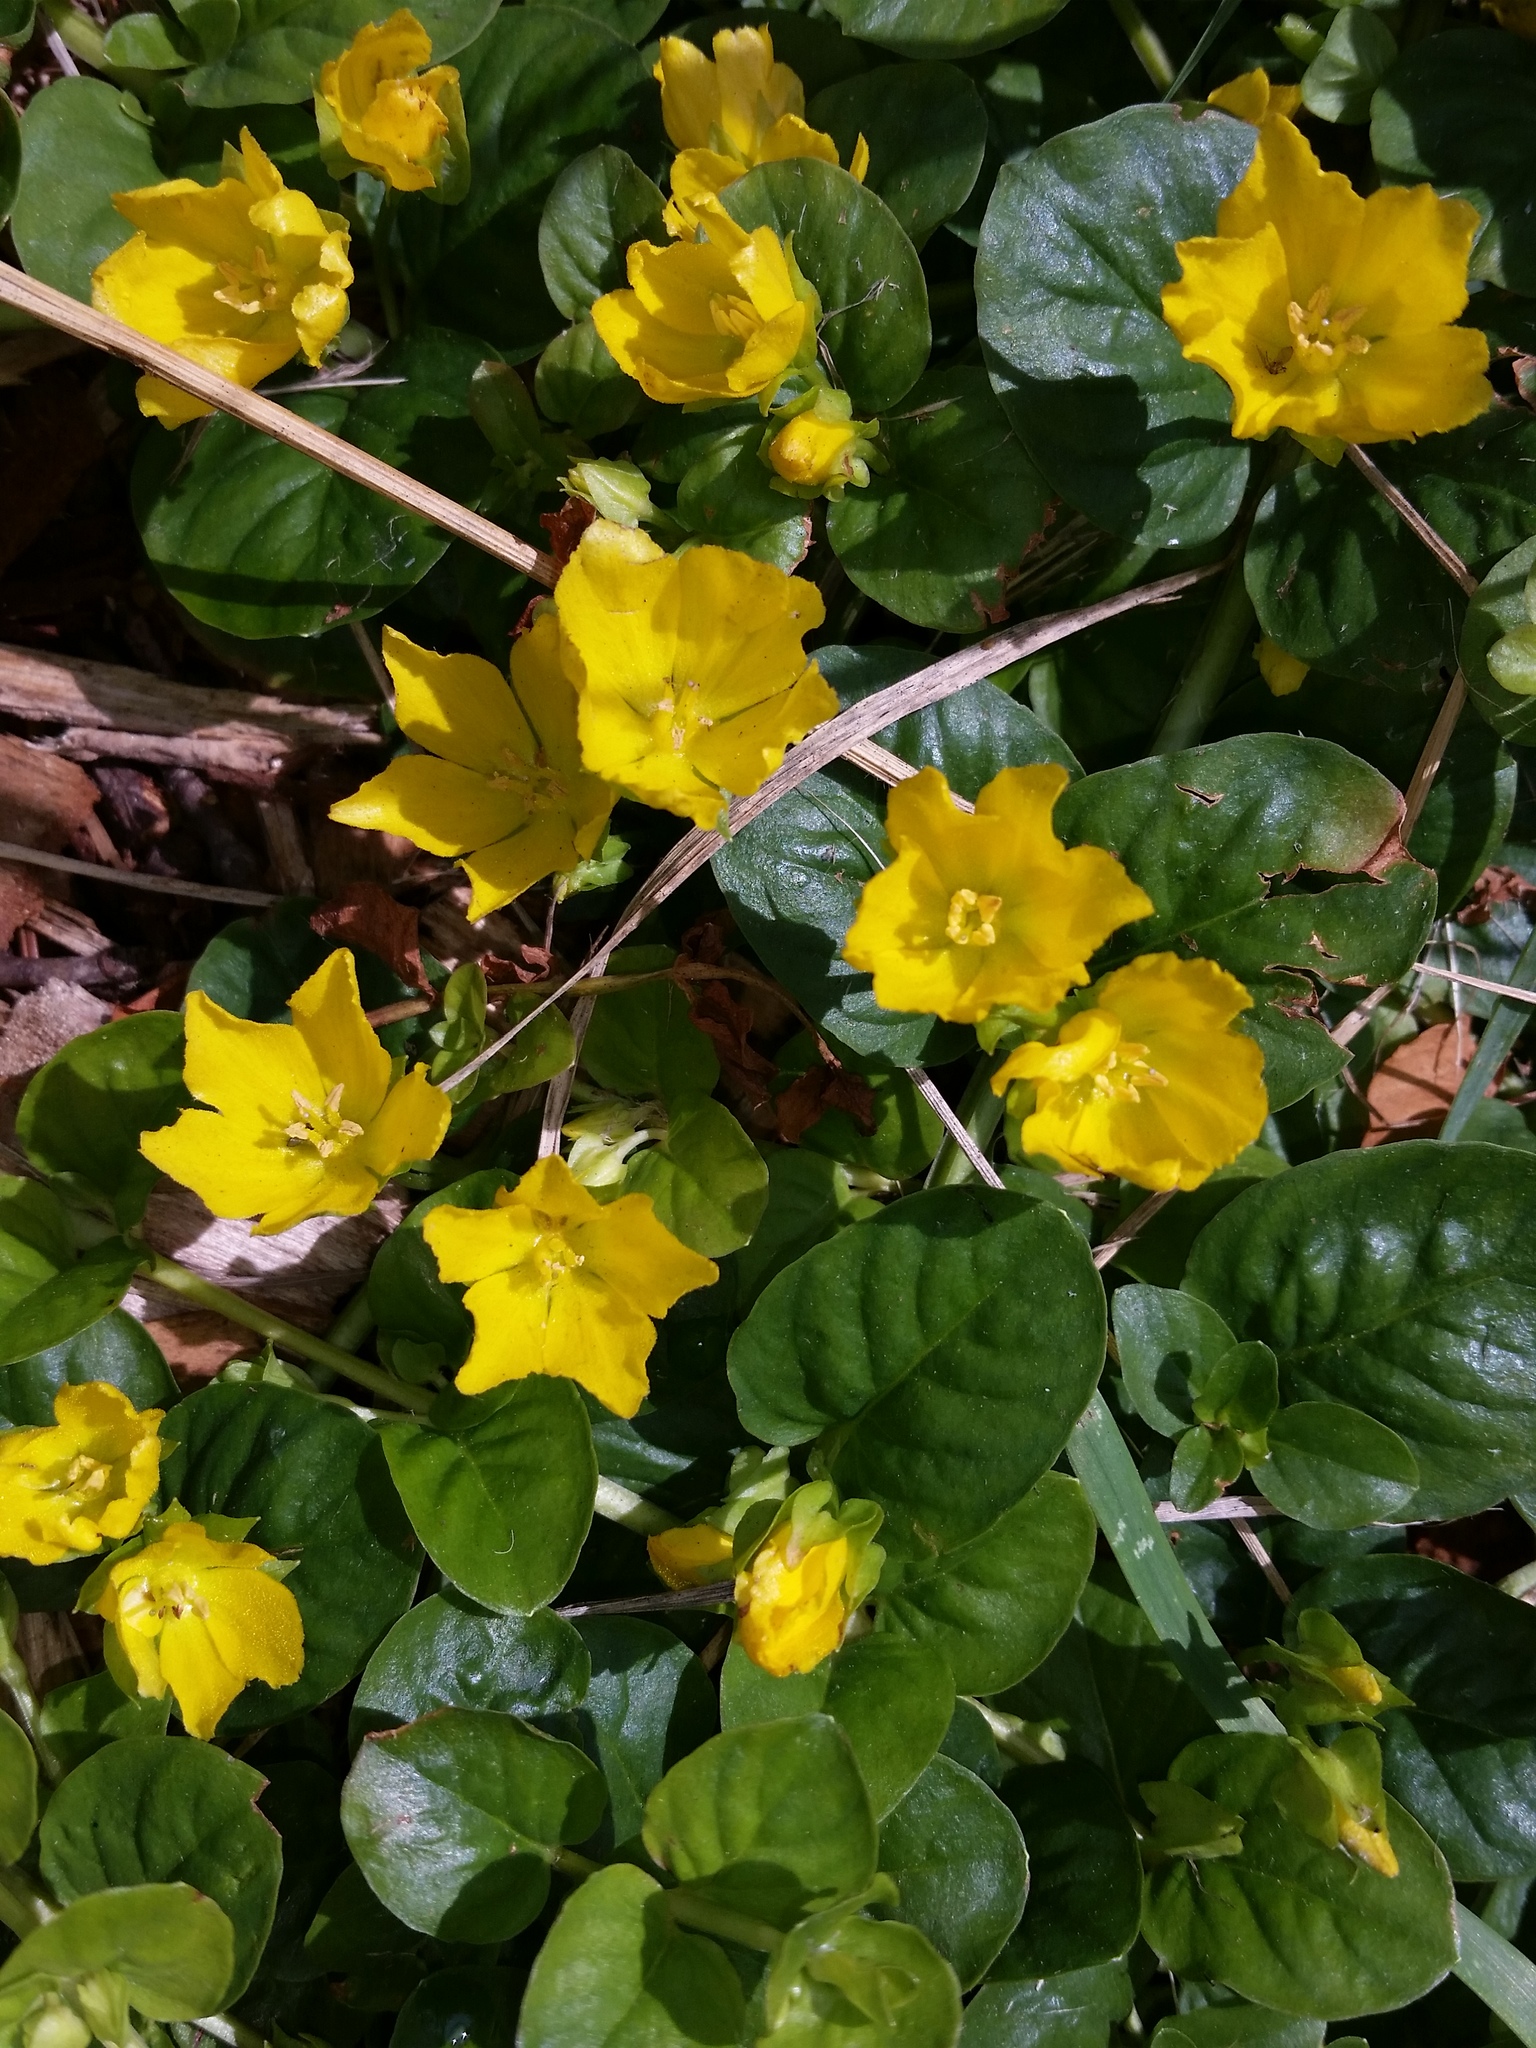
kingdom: Plantae
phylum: Tracheophyta
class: Magnoliopsida
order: Ericales
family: Primulaceae
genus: Lysimachia
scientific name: Lysimachia nummularia
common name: Moneywort
